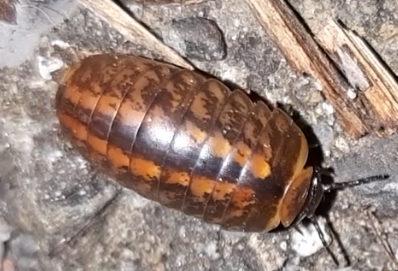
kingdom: Animalia
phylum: Arthropoda
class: Diplopoda
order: Glomerida
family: Glomeridae
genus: Glomeris
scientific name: Glomeris klugii
